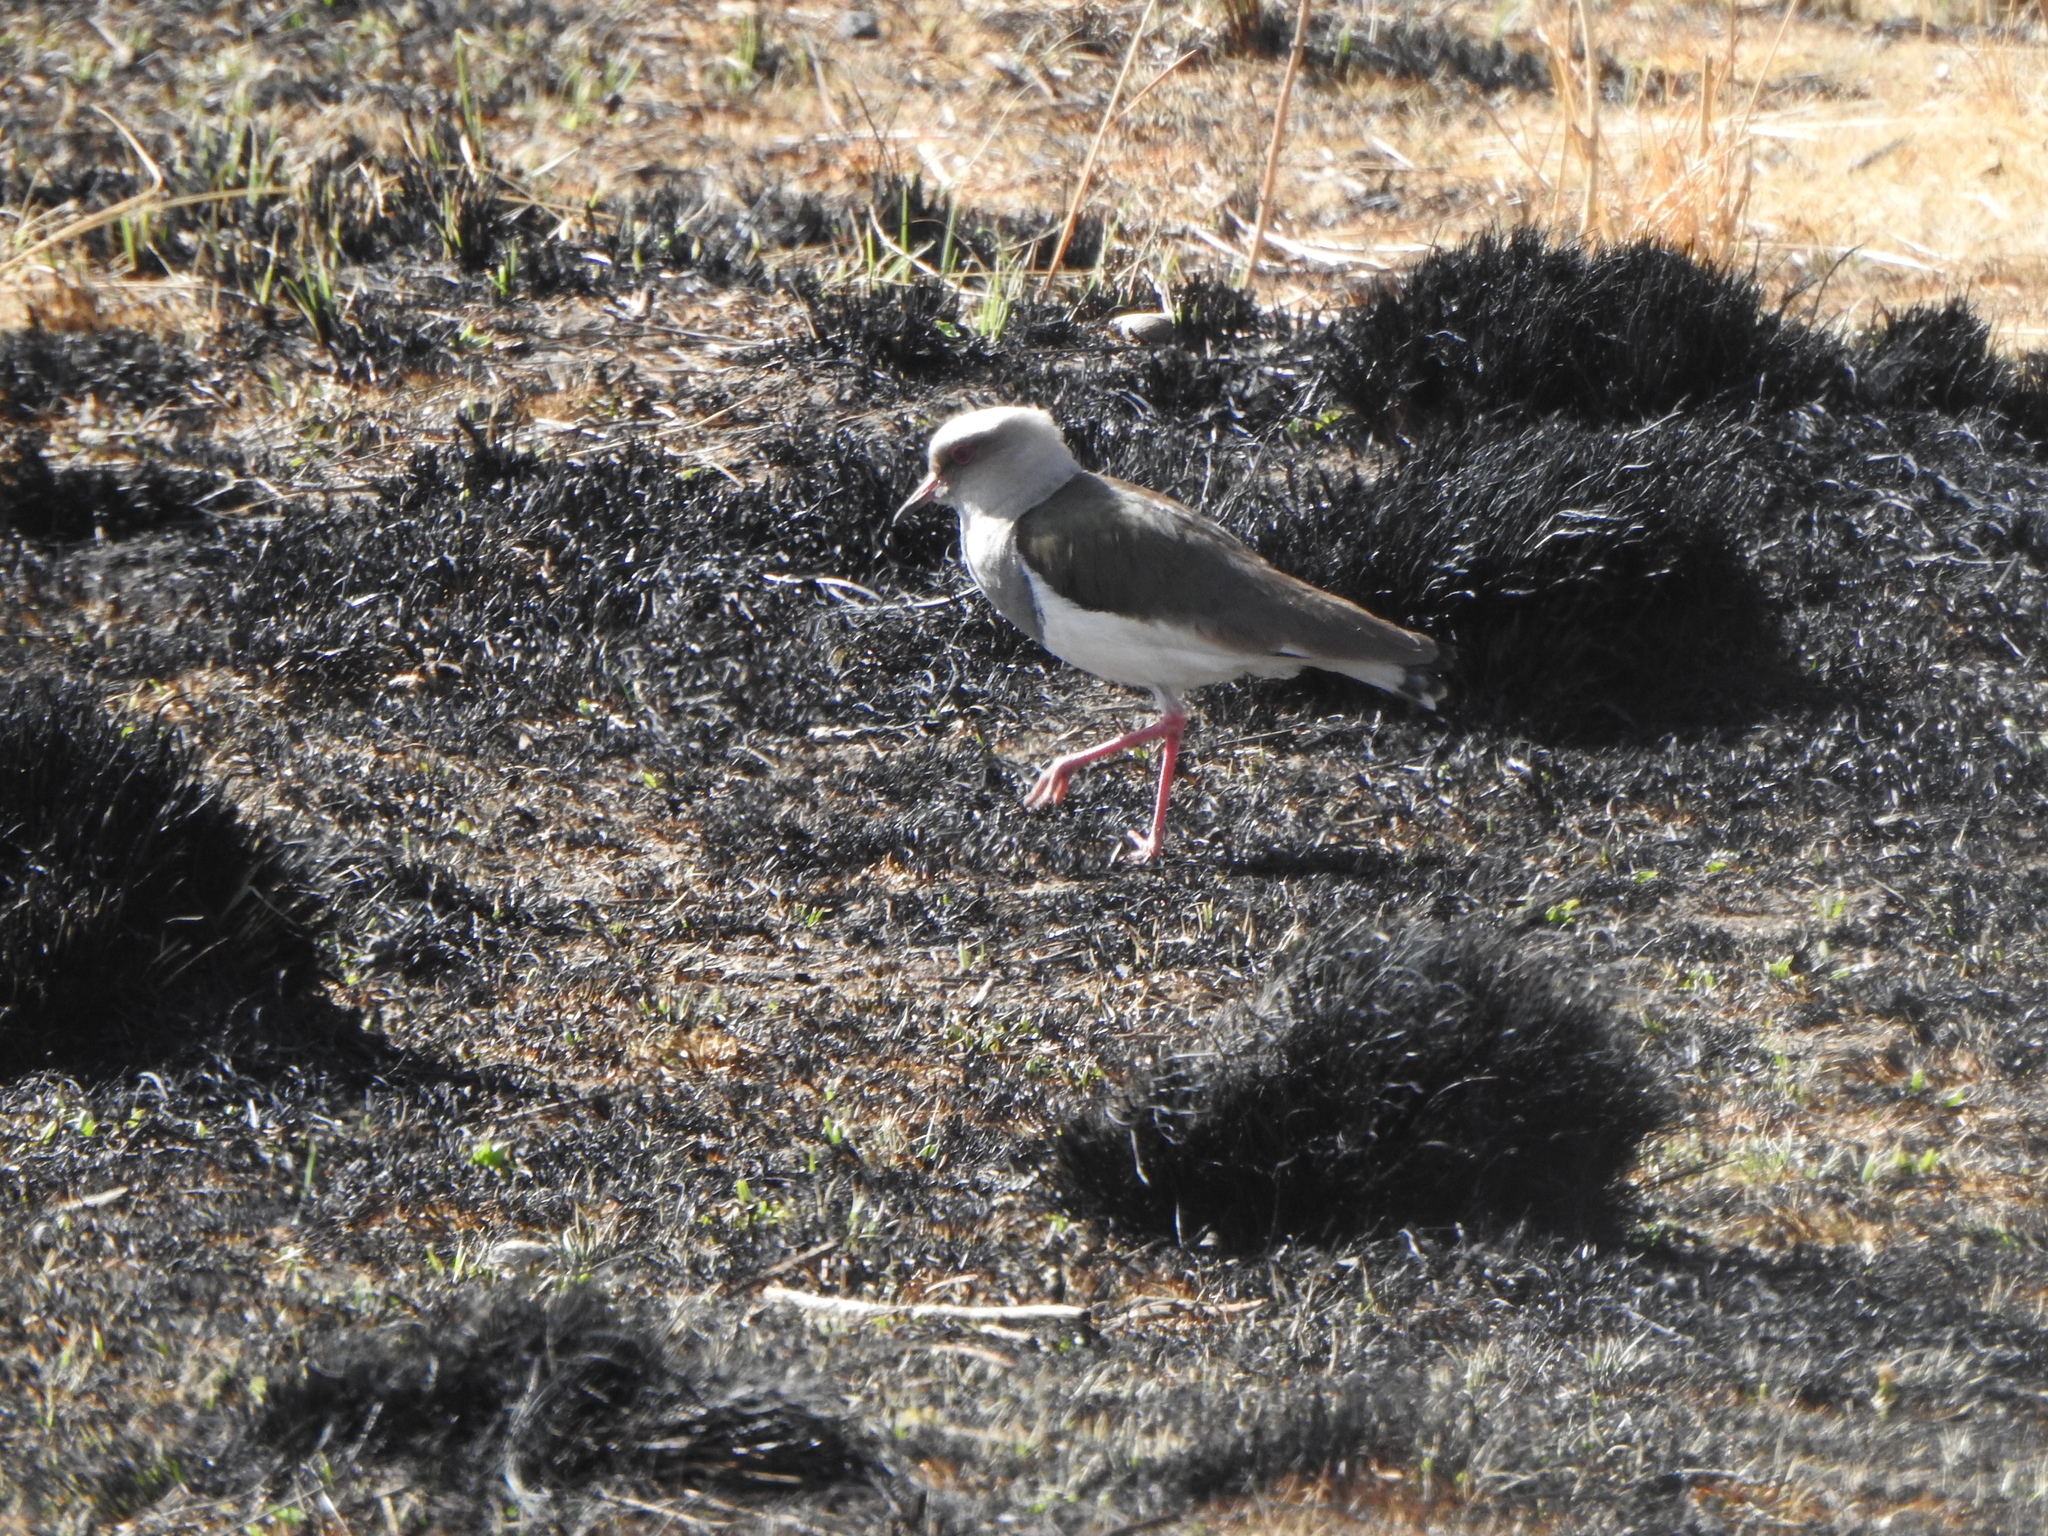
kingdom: Animalia
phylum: Chordata
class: Aves
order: Charadriiformes
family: Charadriidae
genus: Vanellus
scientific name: Vanellus resplendens
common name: Andean lapwing
